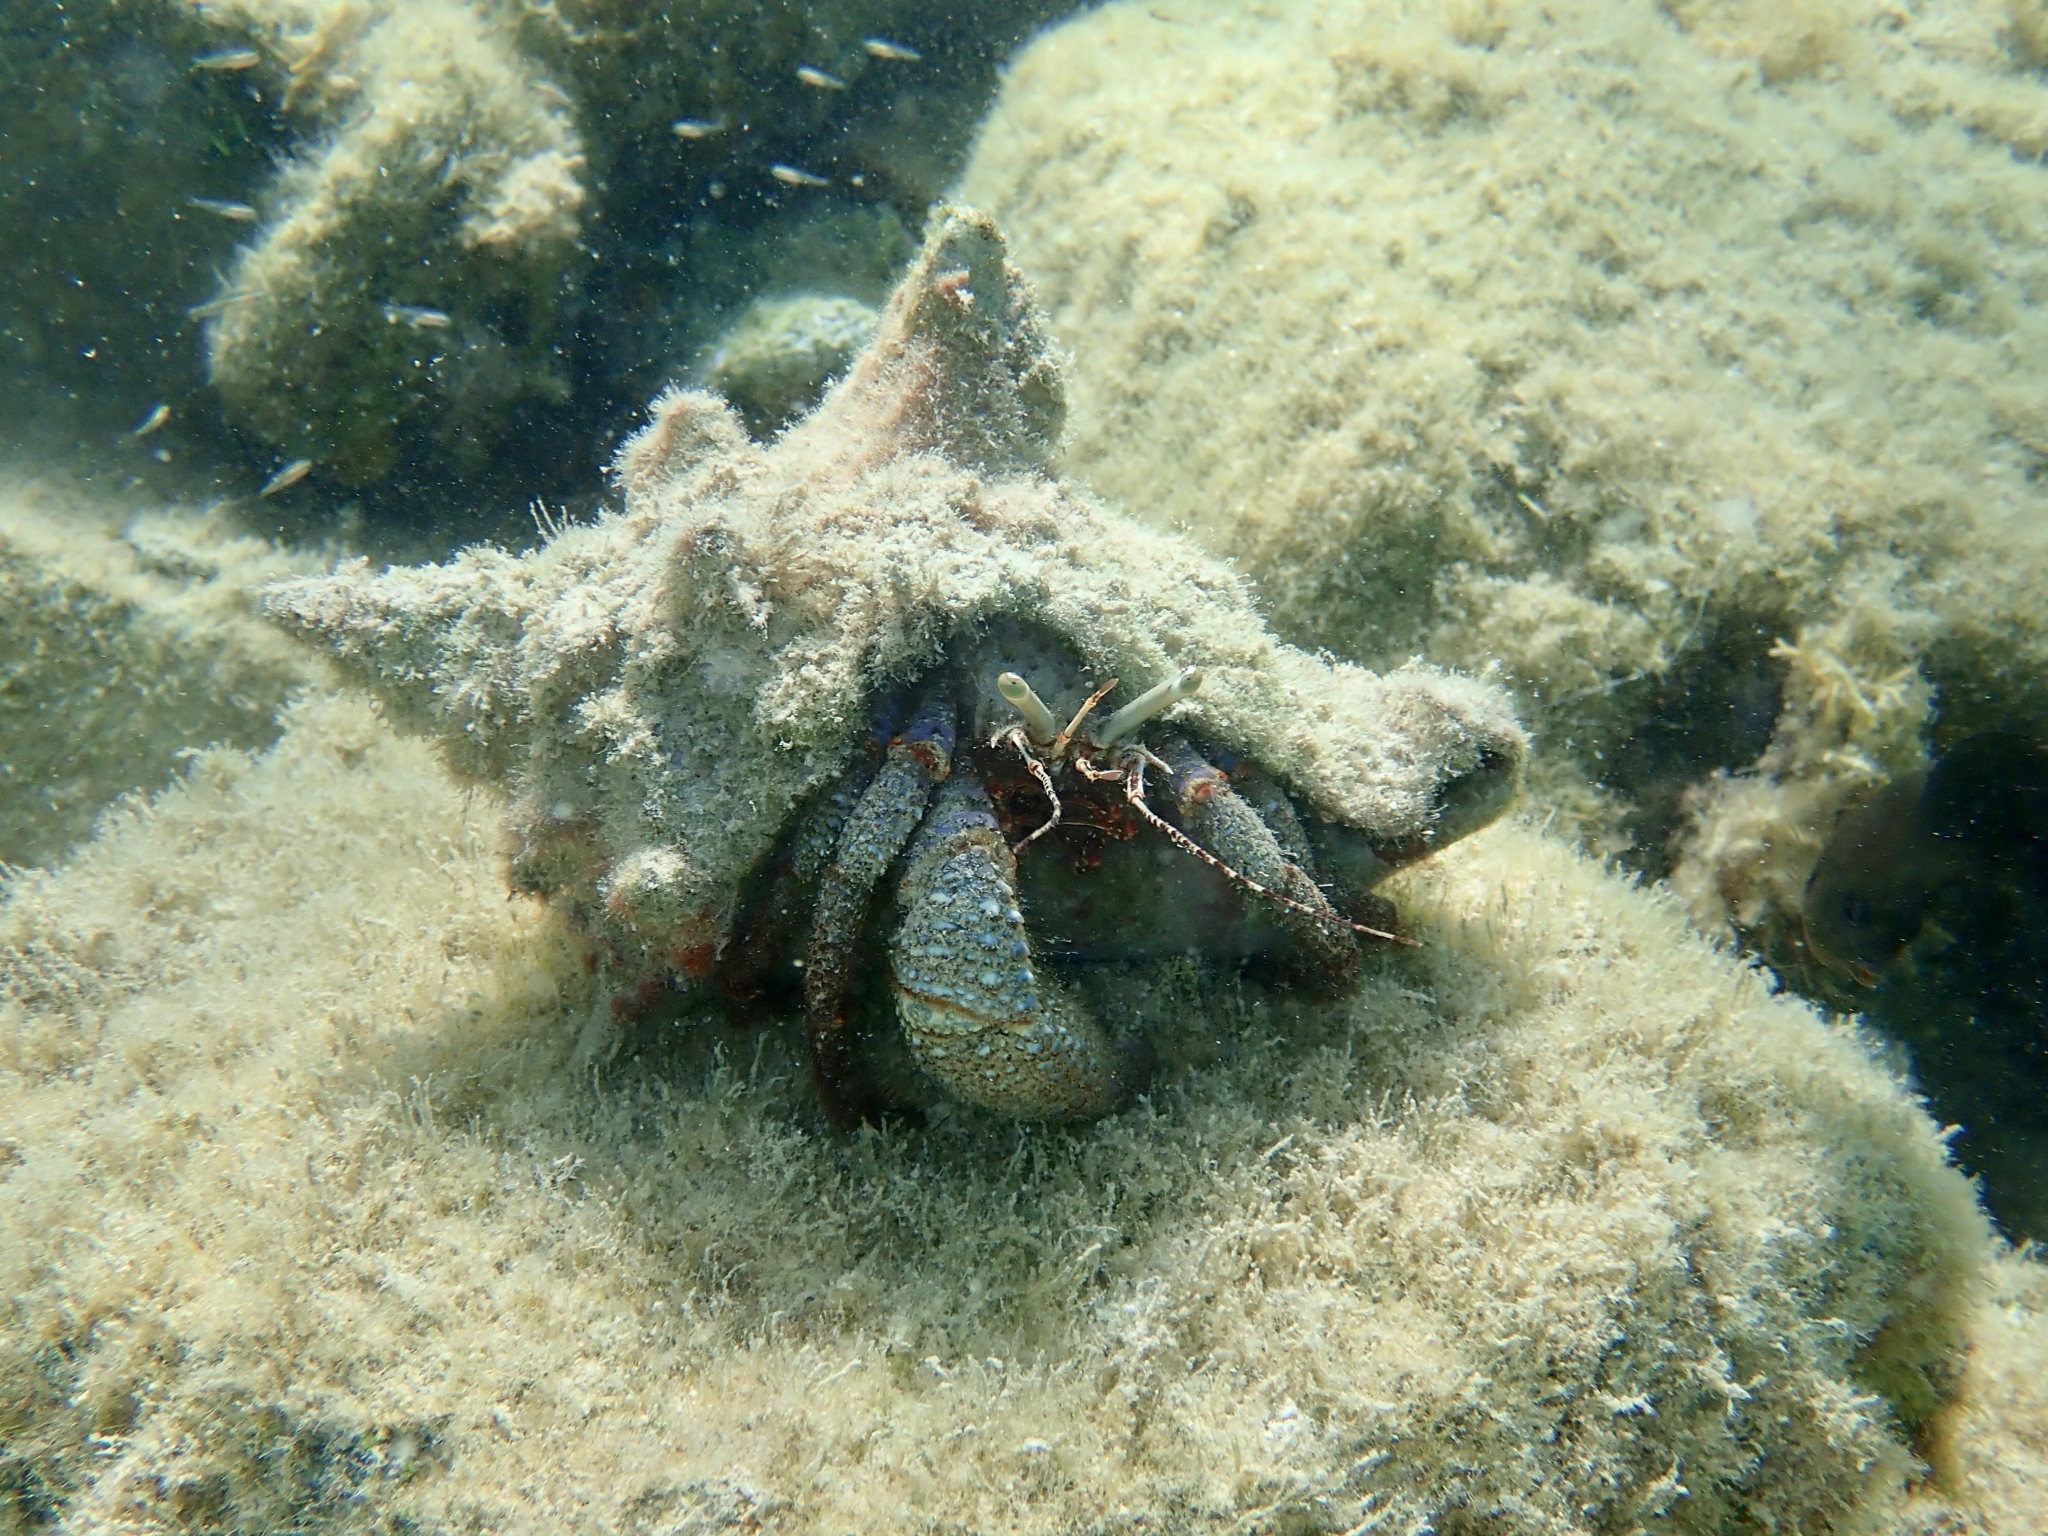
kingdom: Animalia
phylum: Arthropoda
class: Malacostraca
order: Decapoda
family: Diogenidae
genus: Petrochirus
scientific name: Petrochirus diogenes
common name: Giant hermit crab
